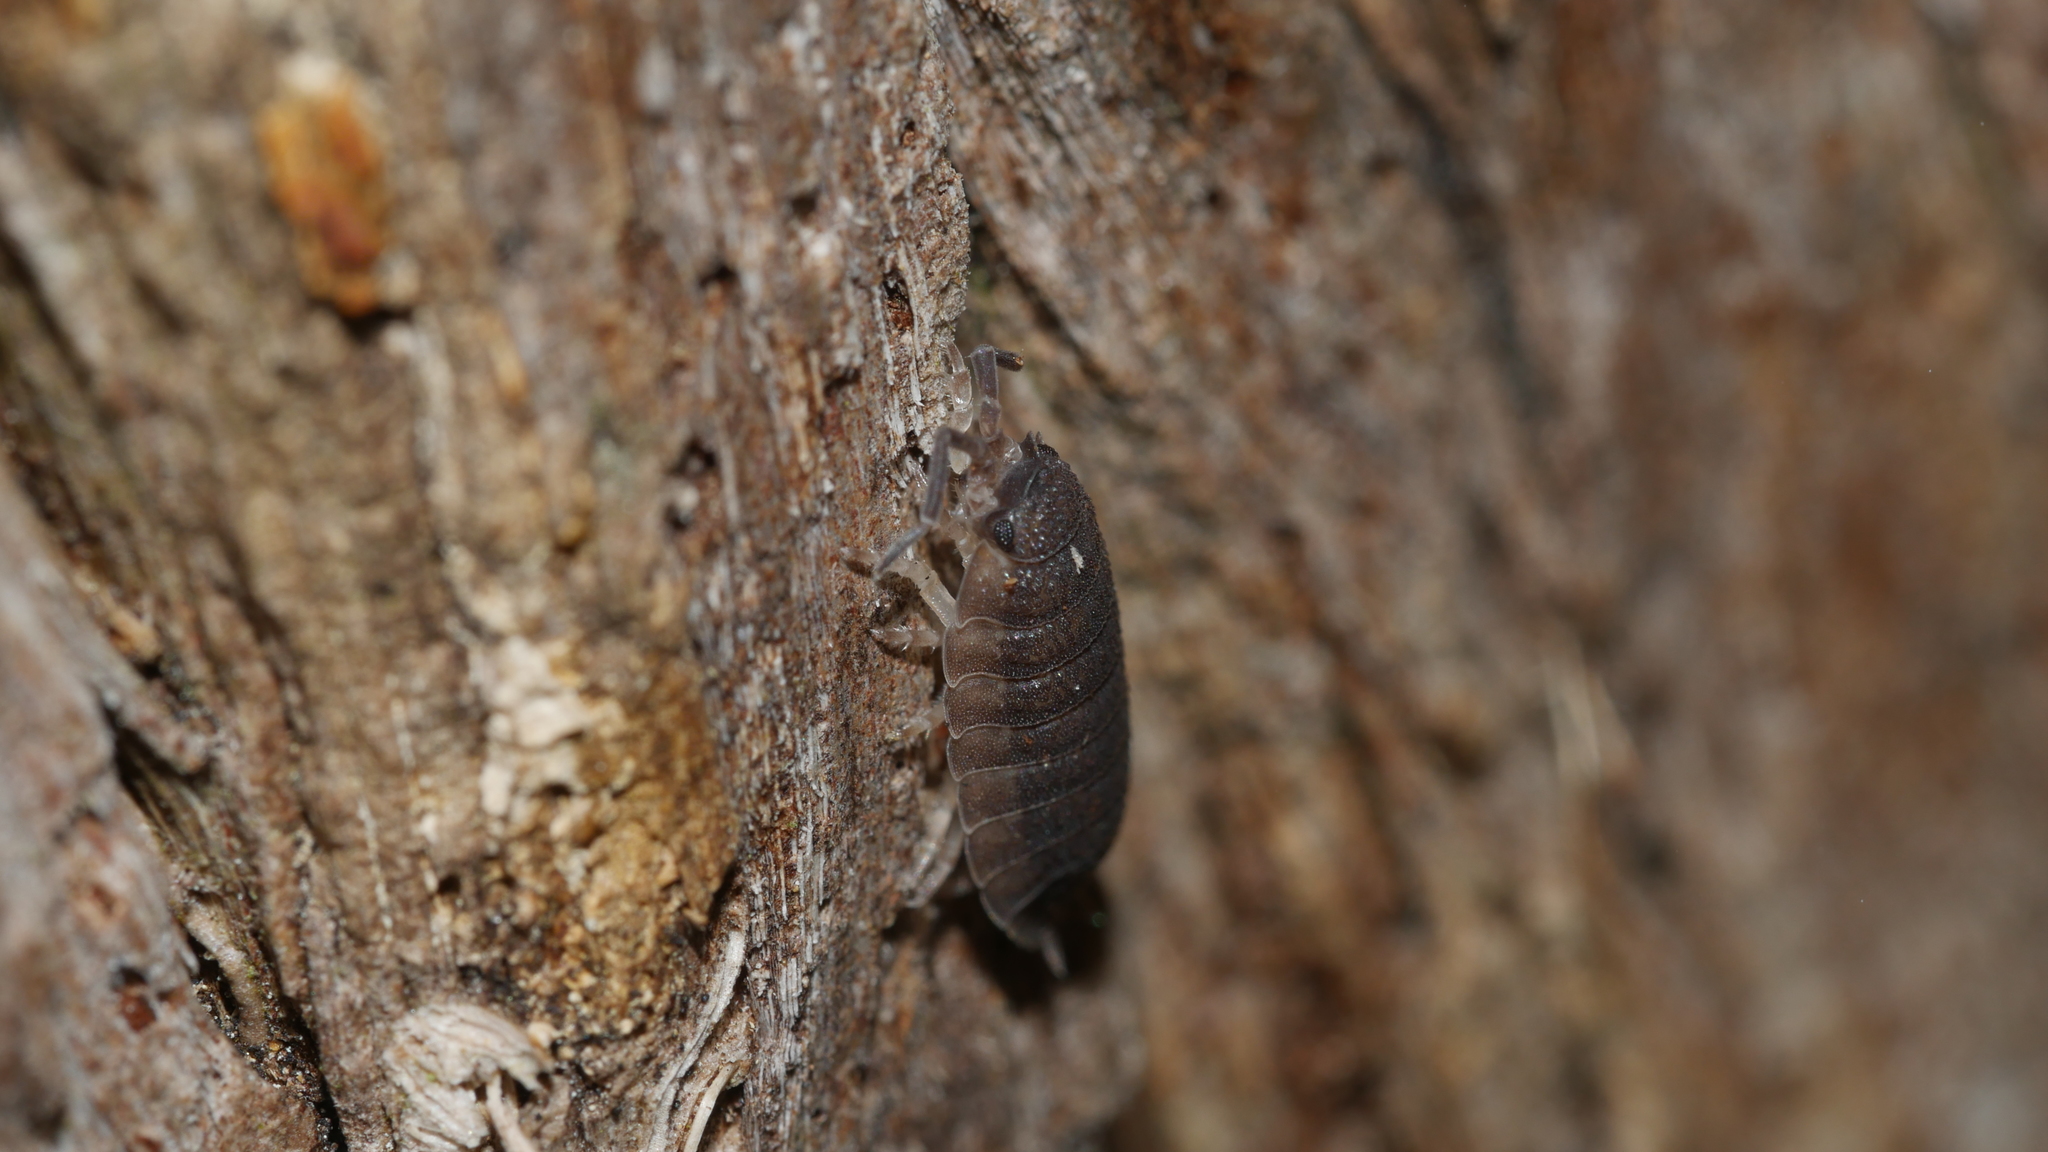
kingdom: Animalia
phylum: Arthropoda
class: Malacostraca
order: Isopoda
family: Porcellionidae
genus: Porcellio
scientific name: Porcellio scaber
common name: Common rough woodlouse
